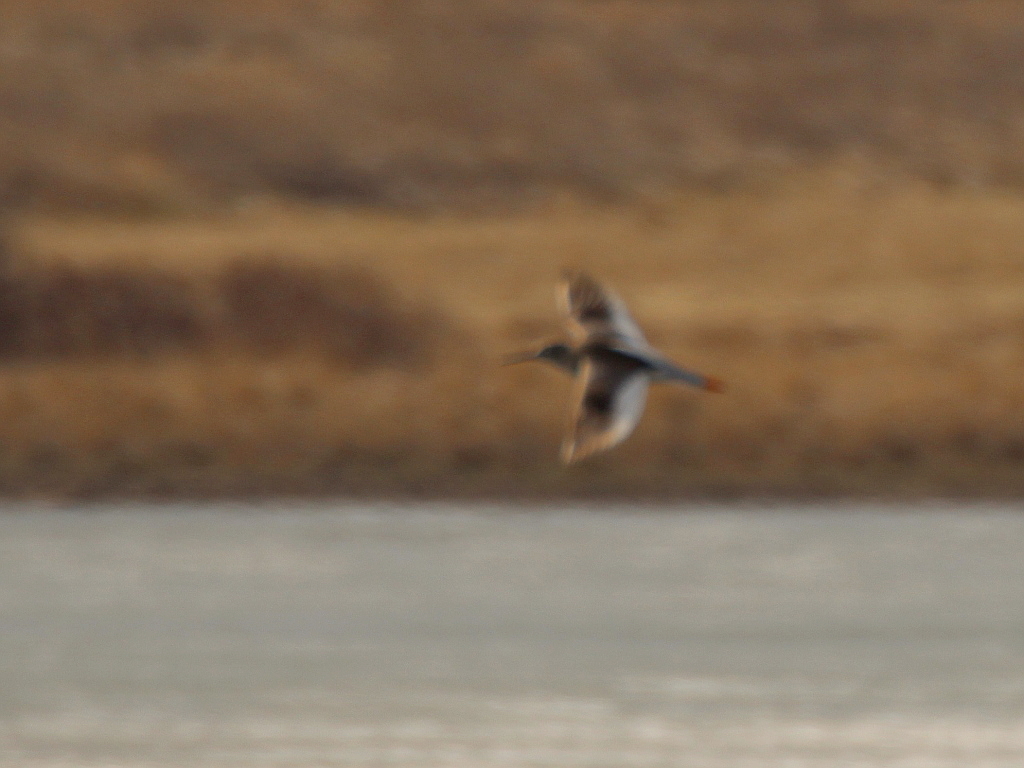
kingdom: Animalia
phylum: Chordata
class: Aves
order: Charadriiformes
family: Scolopacidae
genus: Tringa
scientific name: Tringa totanus
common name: Common redshank
